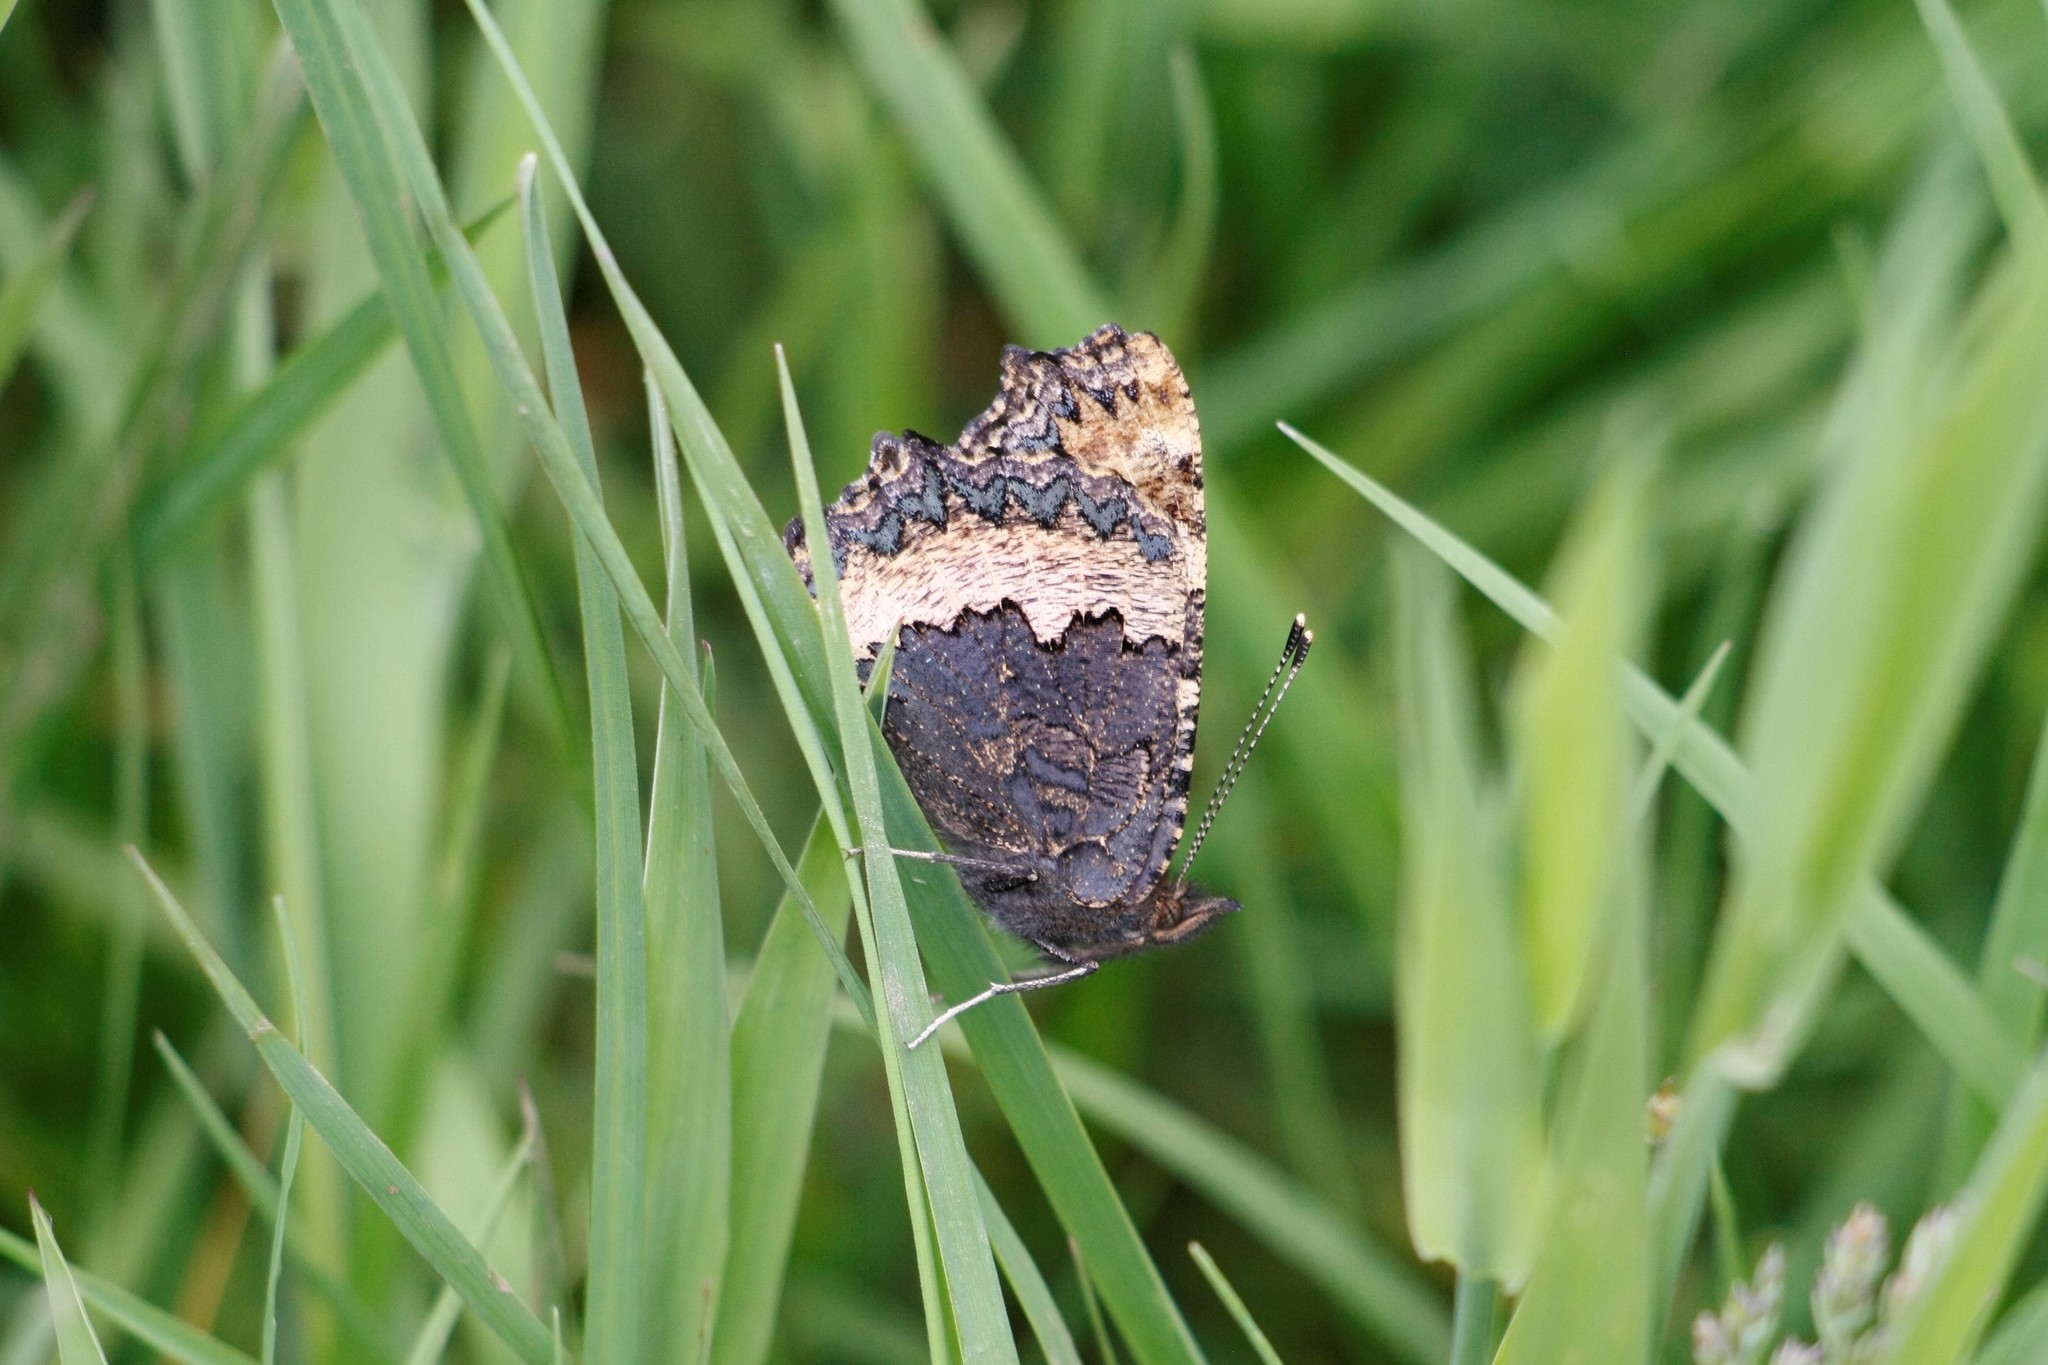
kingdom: Animalia
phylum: Arthropoda
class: Insecta
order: Lepidoptera
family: Nymphalidae
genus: Aglais
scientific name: Aglais urticae
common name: Small tortoiseshell
